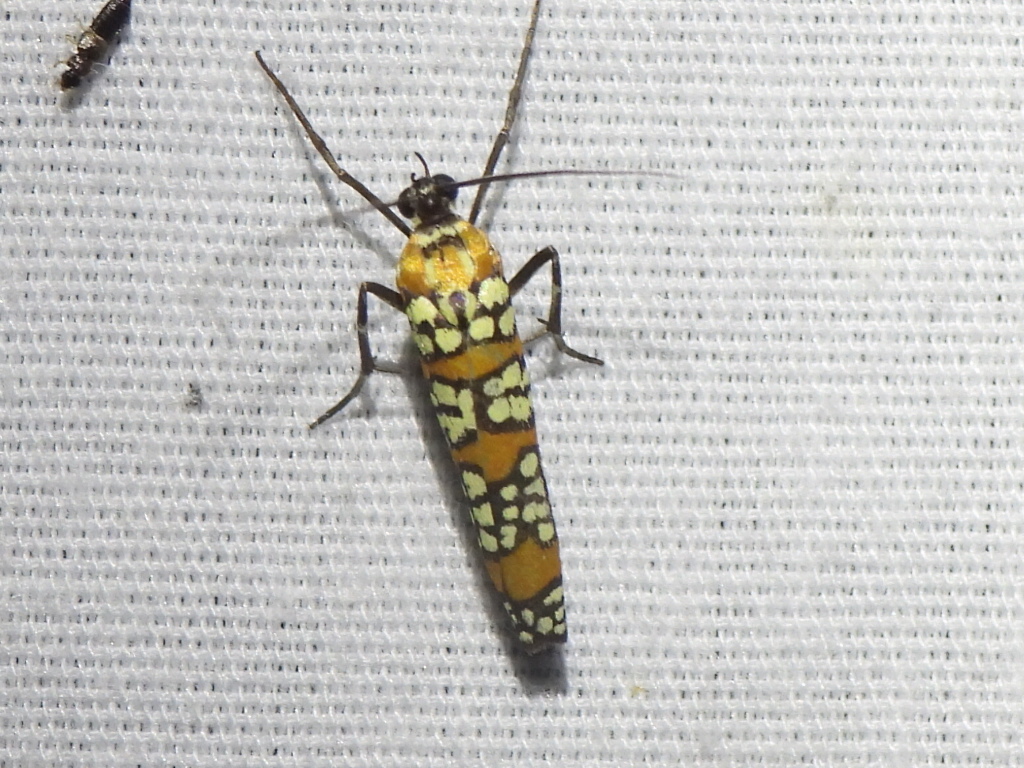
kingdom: Animalia
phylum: Arthropoda
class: Insecta
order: Lepidoptera
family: Attevidae
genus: Atteva
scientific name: Atteva punctella
